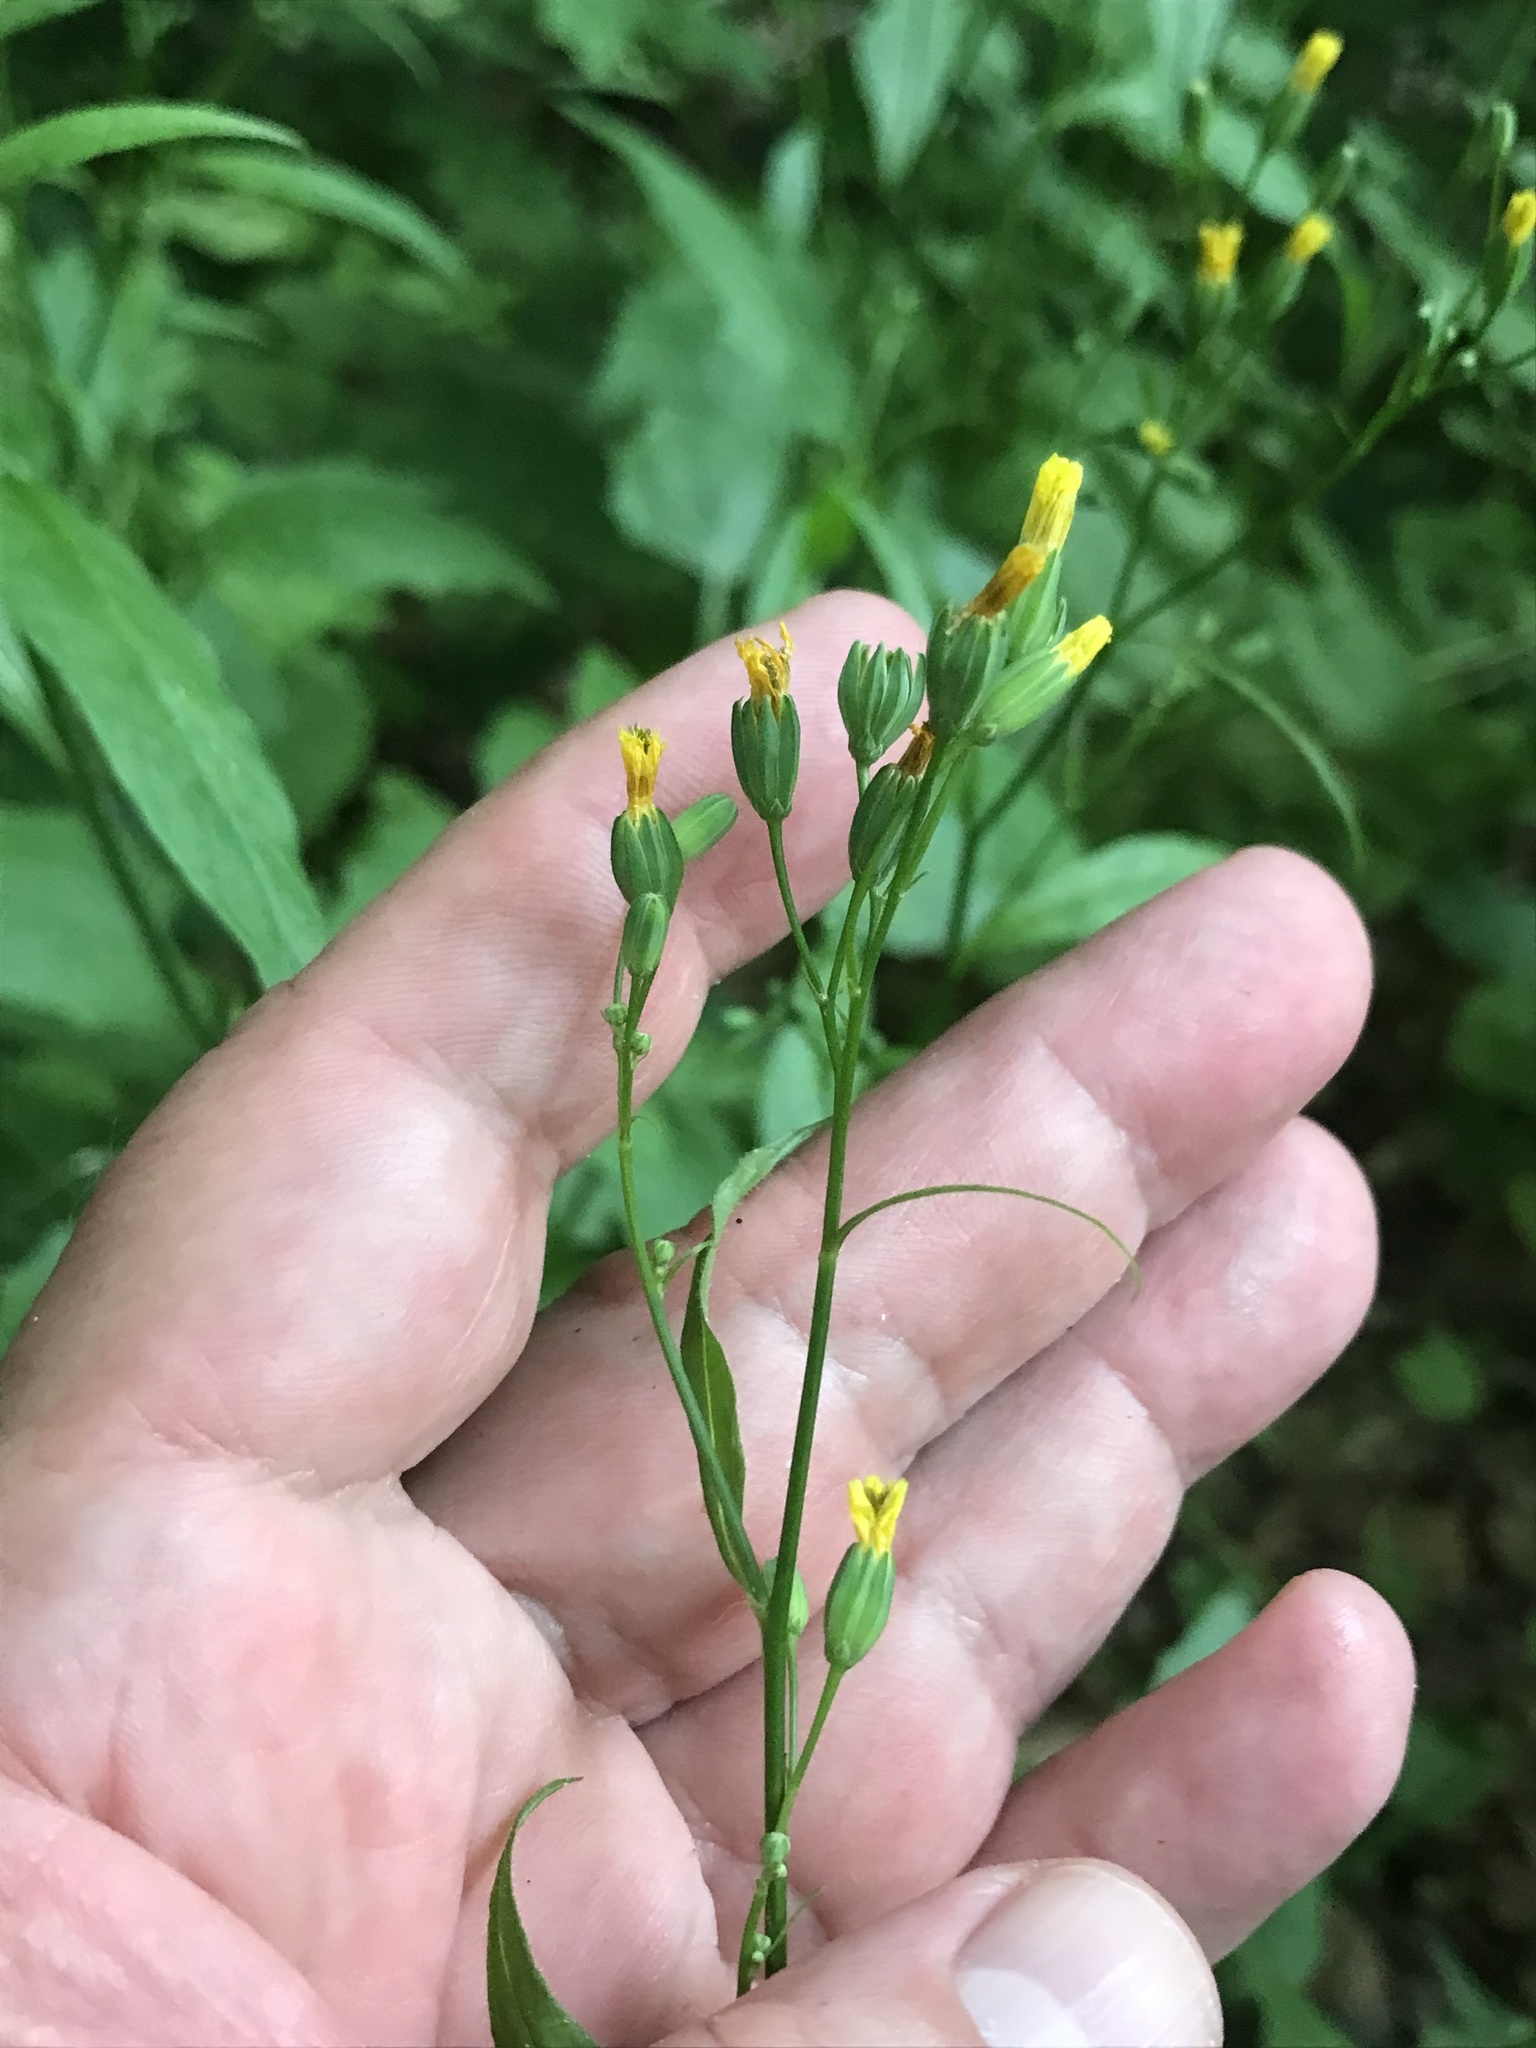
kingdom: Plantae
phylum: Tracheophyta
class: Magnoliopsida
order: Asterales
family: Asteraceae
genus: Lapsana
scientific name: Lapsana communis
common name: Nipplewort
